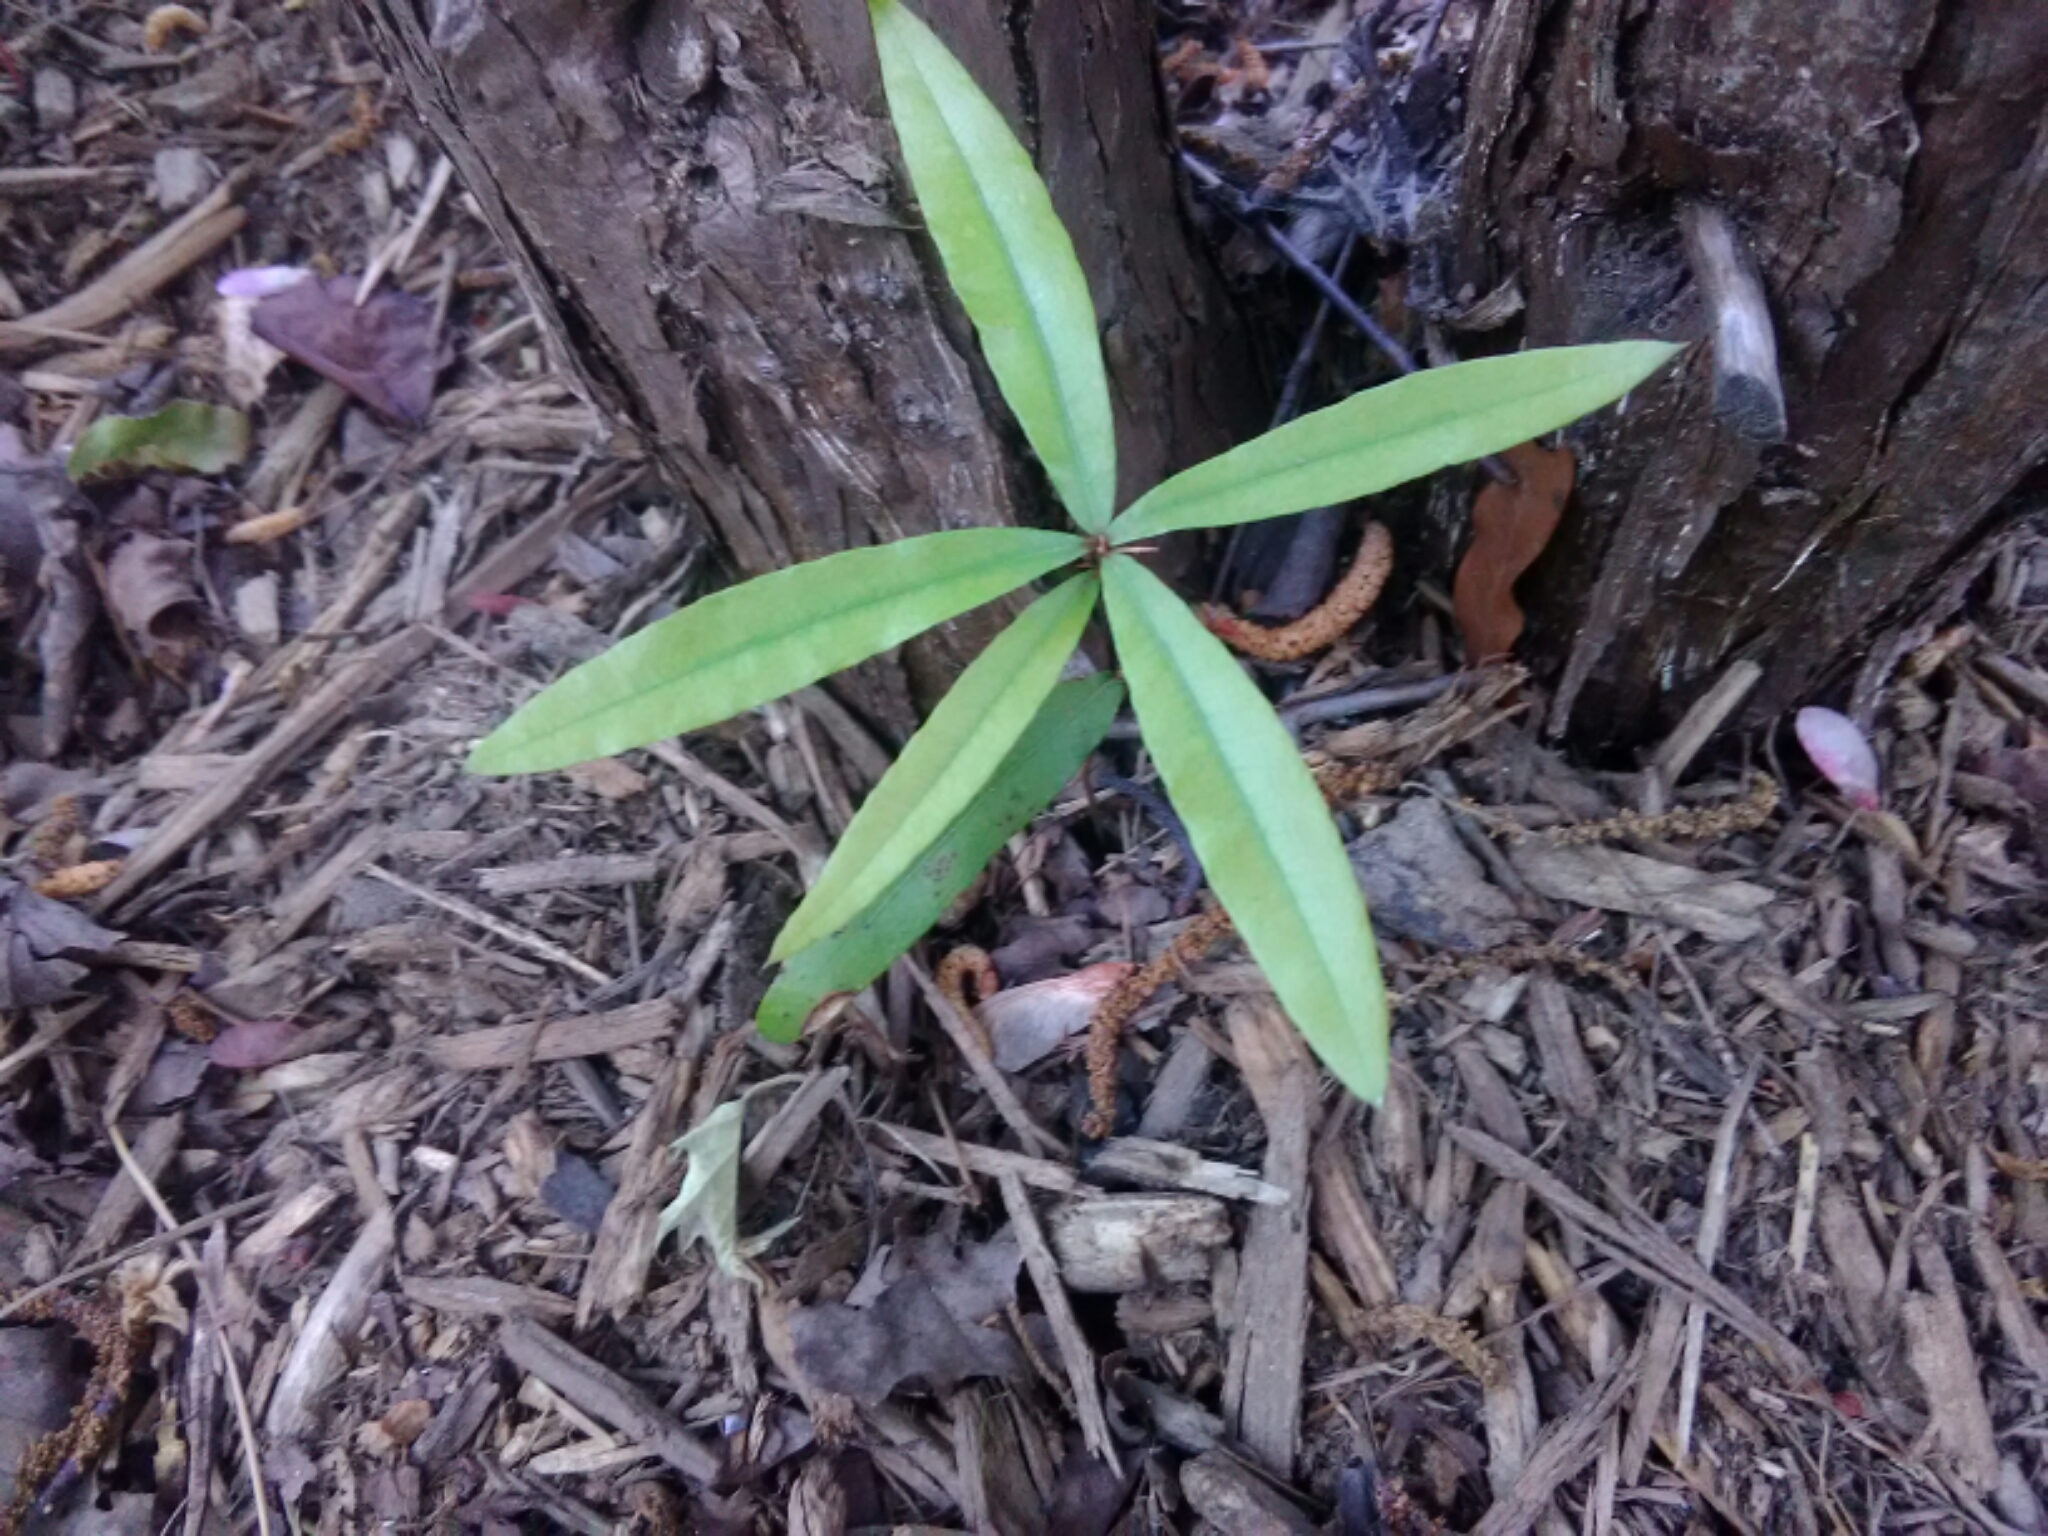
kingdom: Plantae
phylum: Tracheophyta
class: Magnoliopsida
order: Fagales
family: Fagaceae
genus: Quercus
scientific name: Quercus phellos
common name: Willow oak
